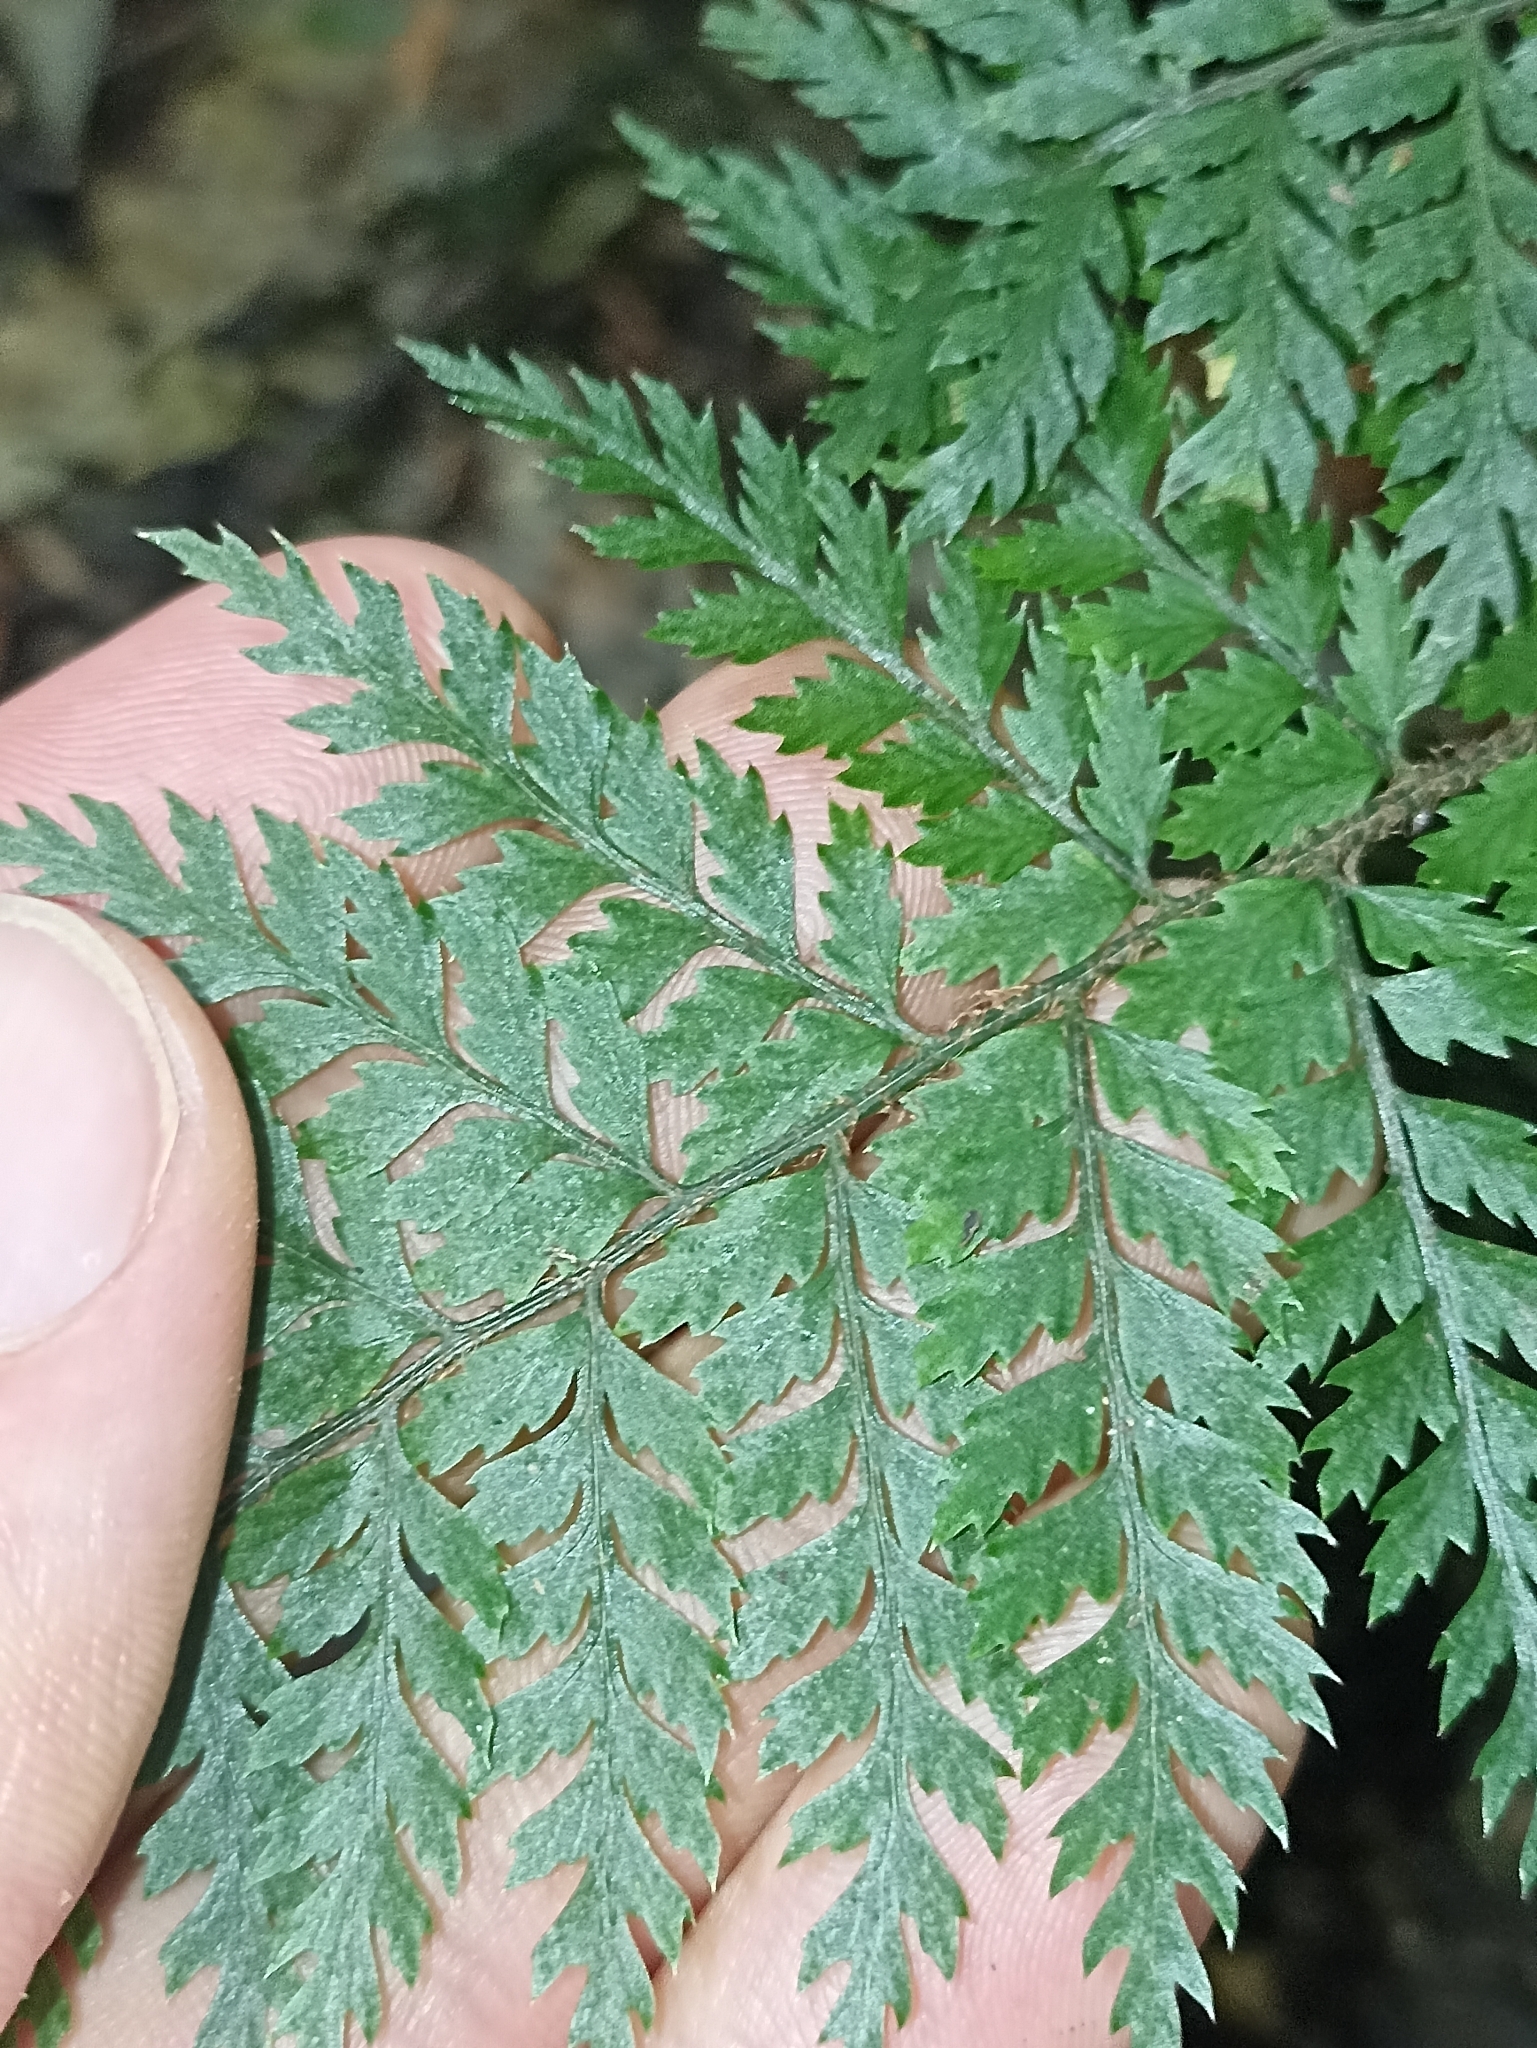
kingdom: Plantae
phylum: Tracheophyta
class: Polypodiopsida
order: Polypodiales
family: Dryopteridaceae
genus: Parapolystichum
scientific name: Parapolystichum glabellum
